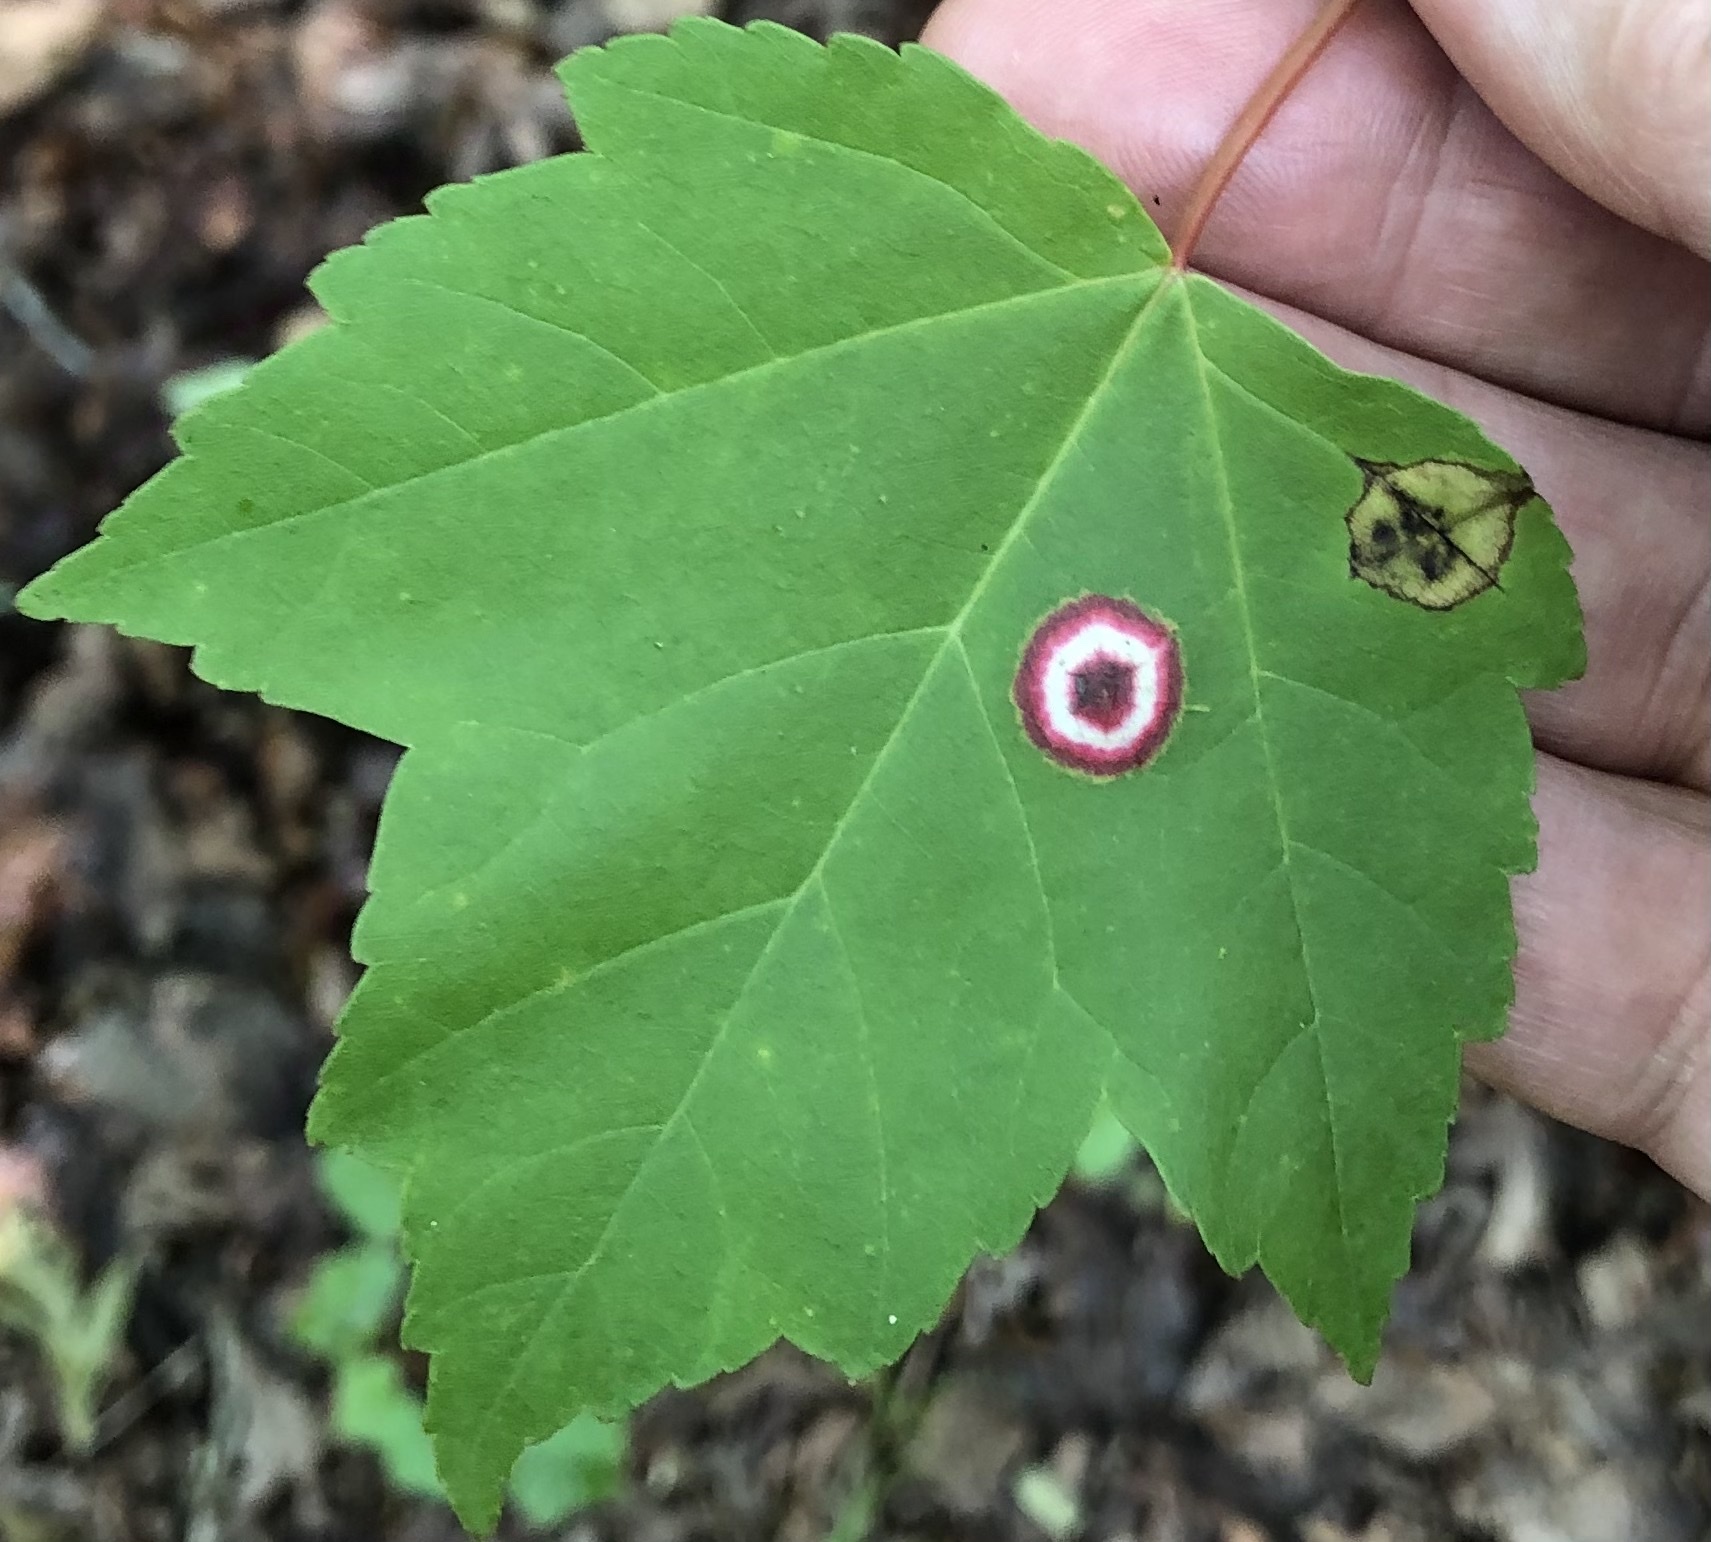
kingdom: Animalia
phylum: Arthropoda
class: Insecta
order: Diptera
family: Cecidomyiidae
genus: Acericecis
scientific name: Acericecis ocellaris
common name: Ocellate gall midge
